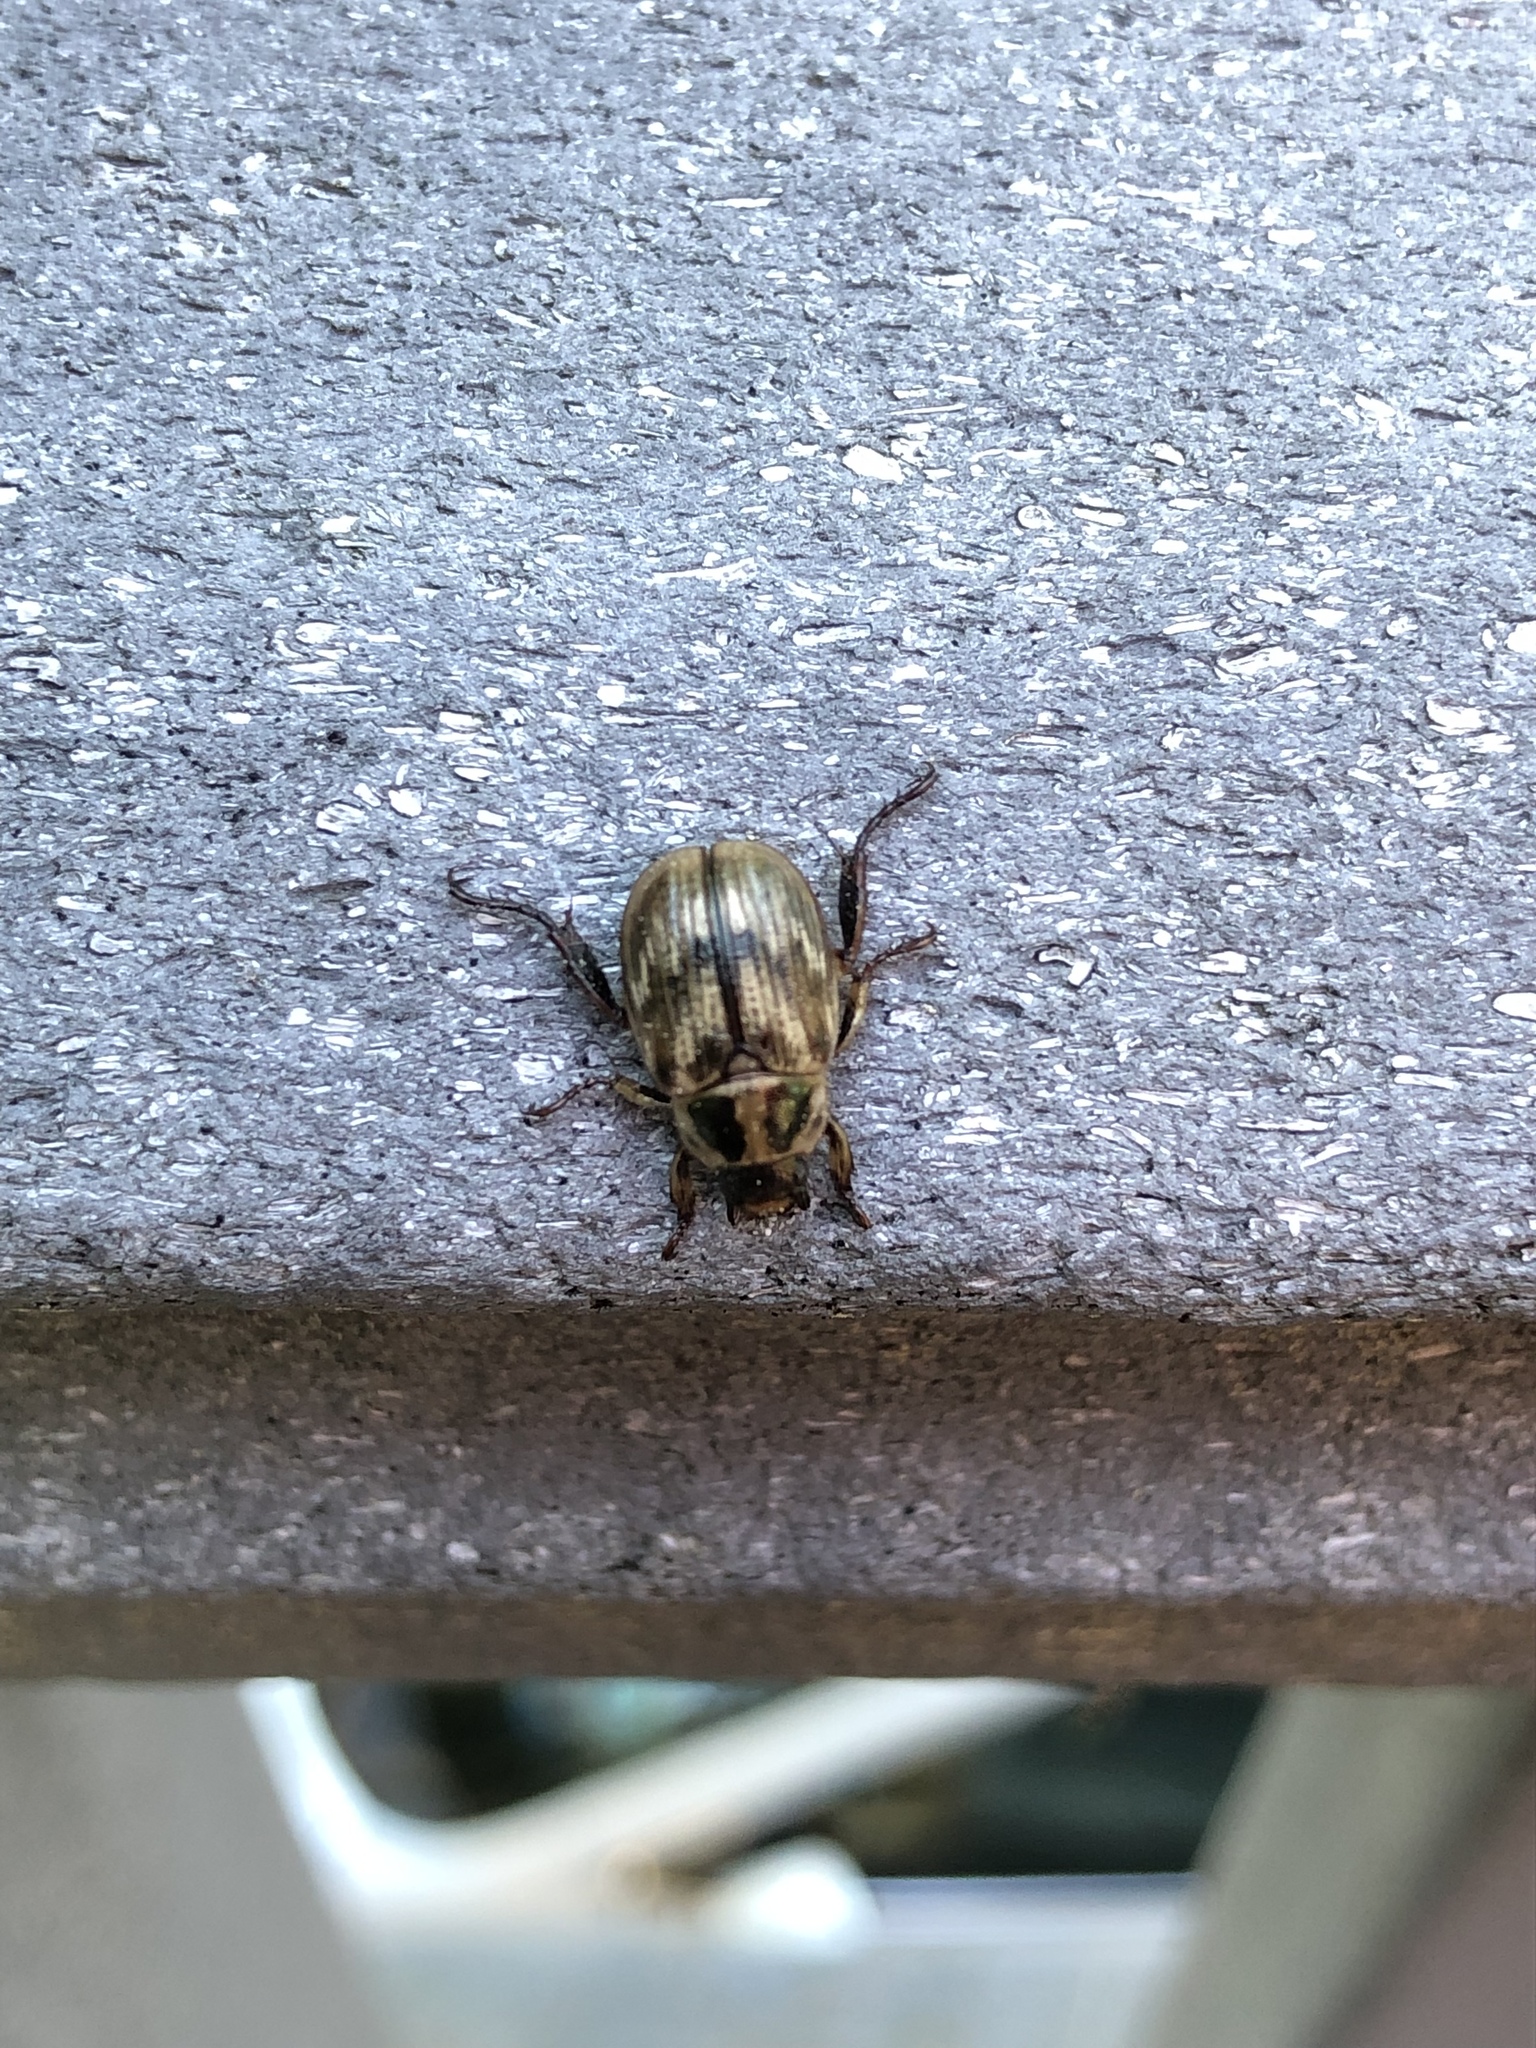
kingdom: Animalia
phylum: Arthropoda
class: Insecta
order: Coleoptera
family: Scarabaeidae
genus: Exomala
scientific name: Exomala orientalis
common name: Oriental beetle
